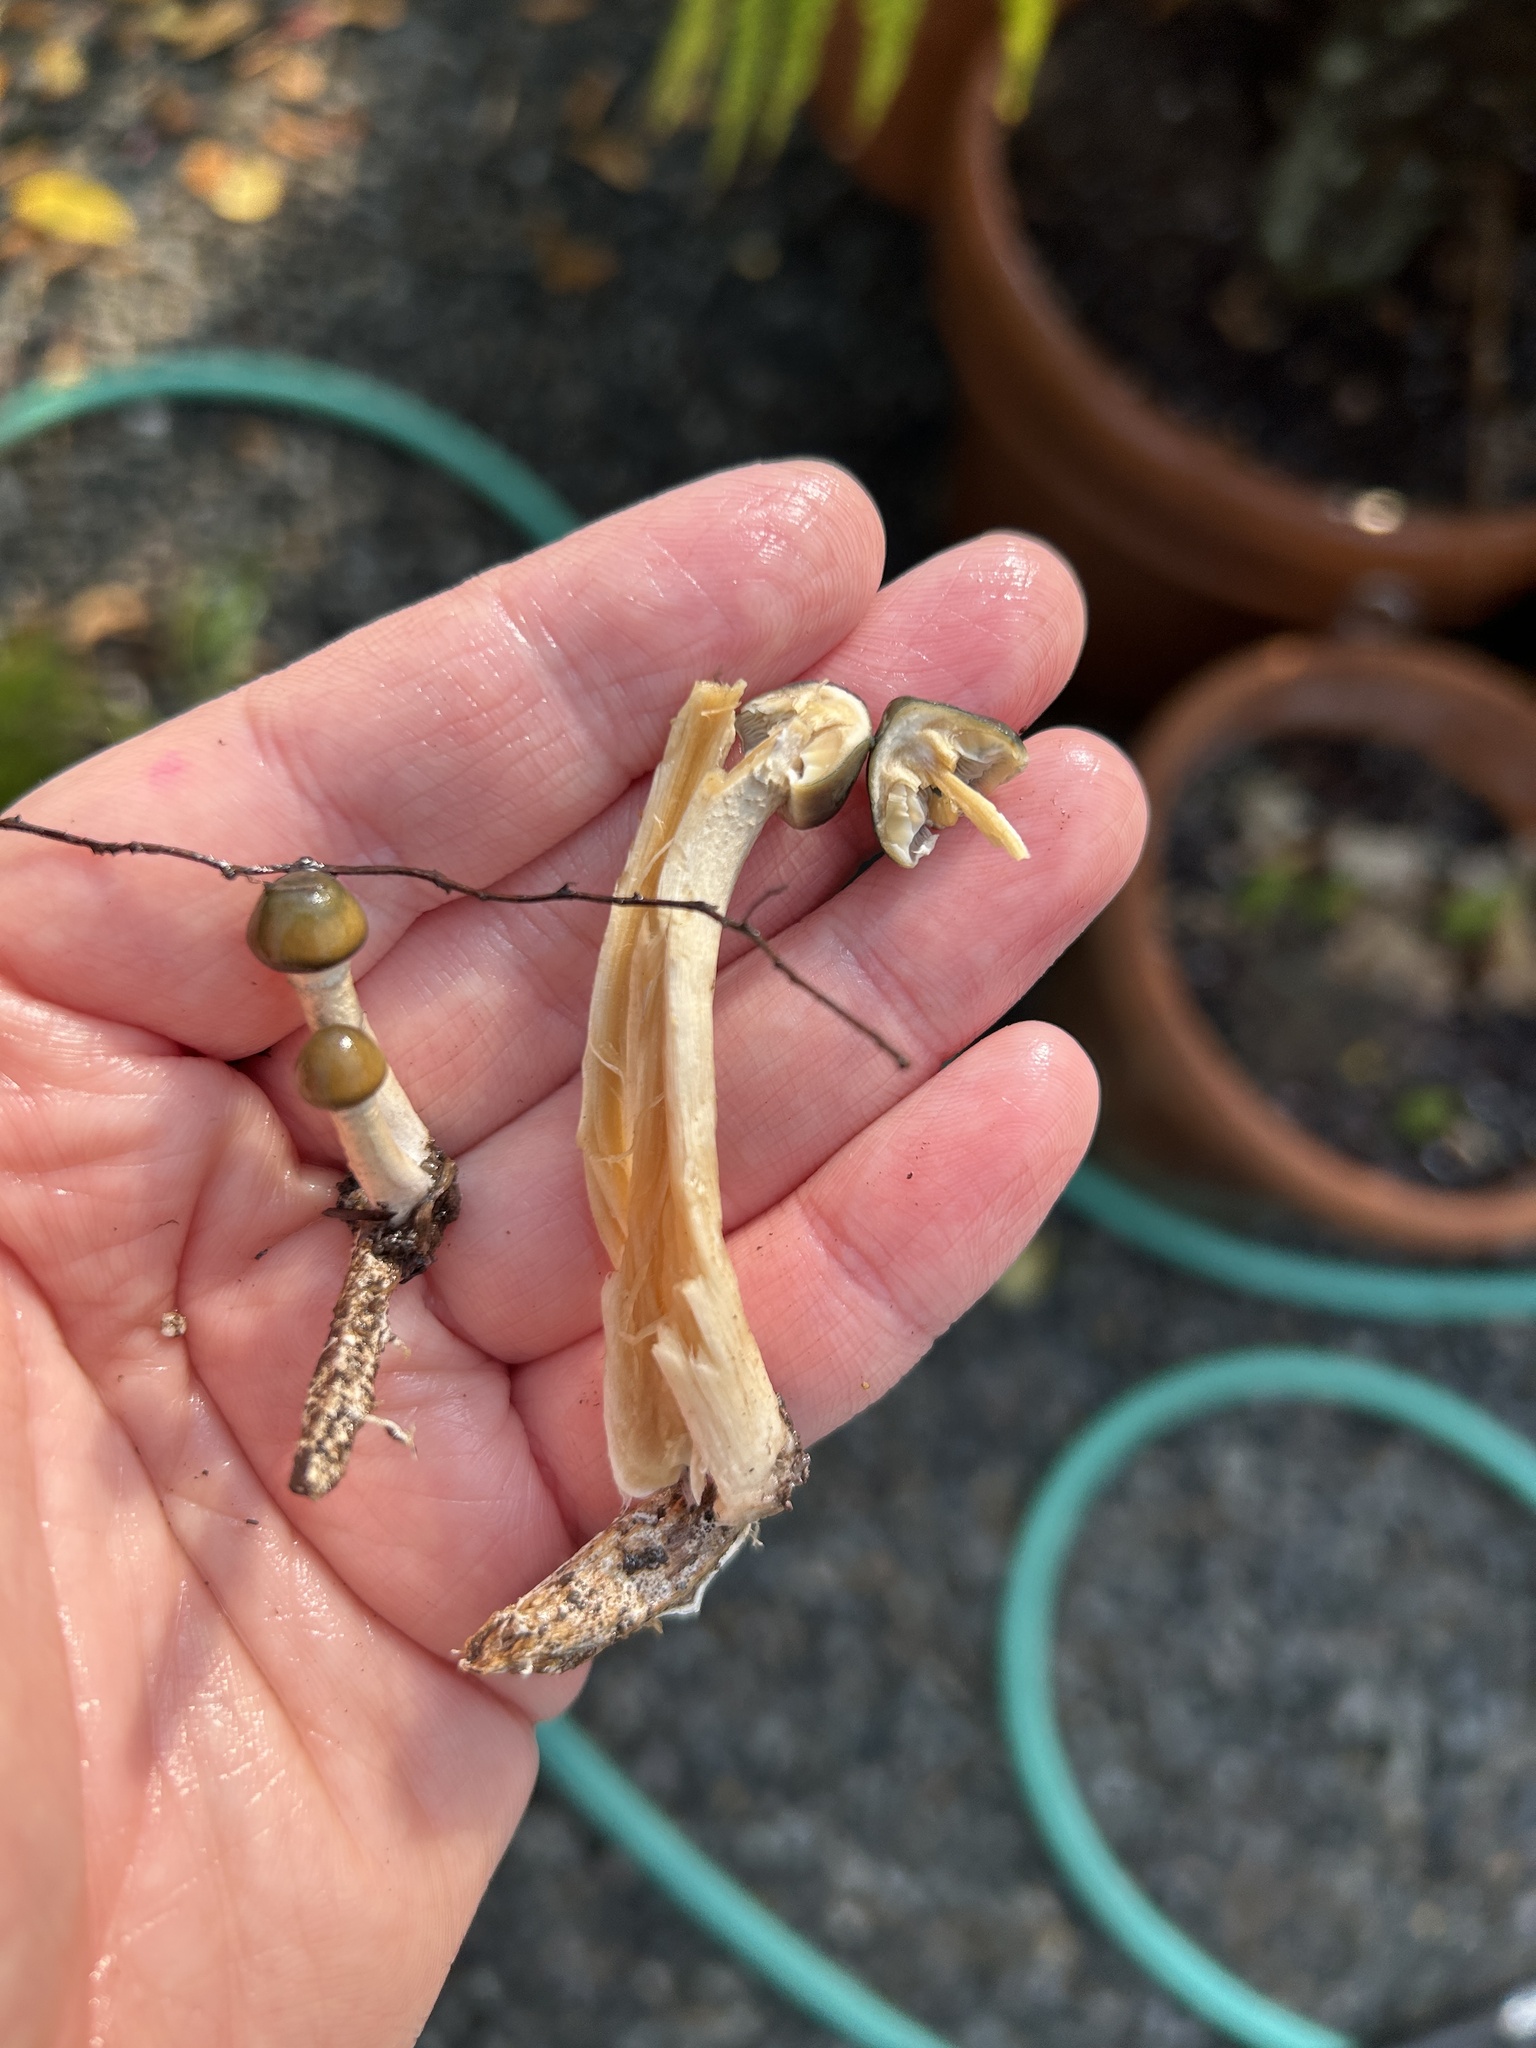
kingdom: Fungi
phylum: Basidiomycota
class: Agaricomycetes
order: Agaricales
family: Hymenogastraceae
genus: Psilocybe
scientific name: Psilocybe ovoideocystidiata
